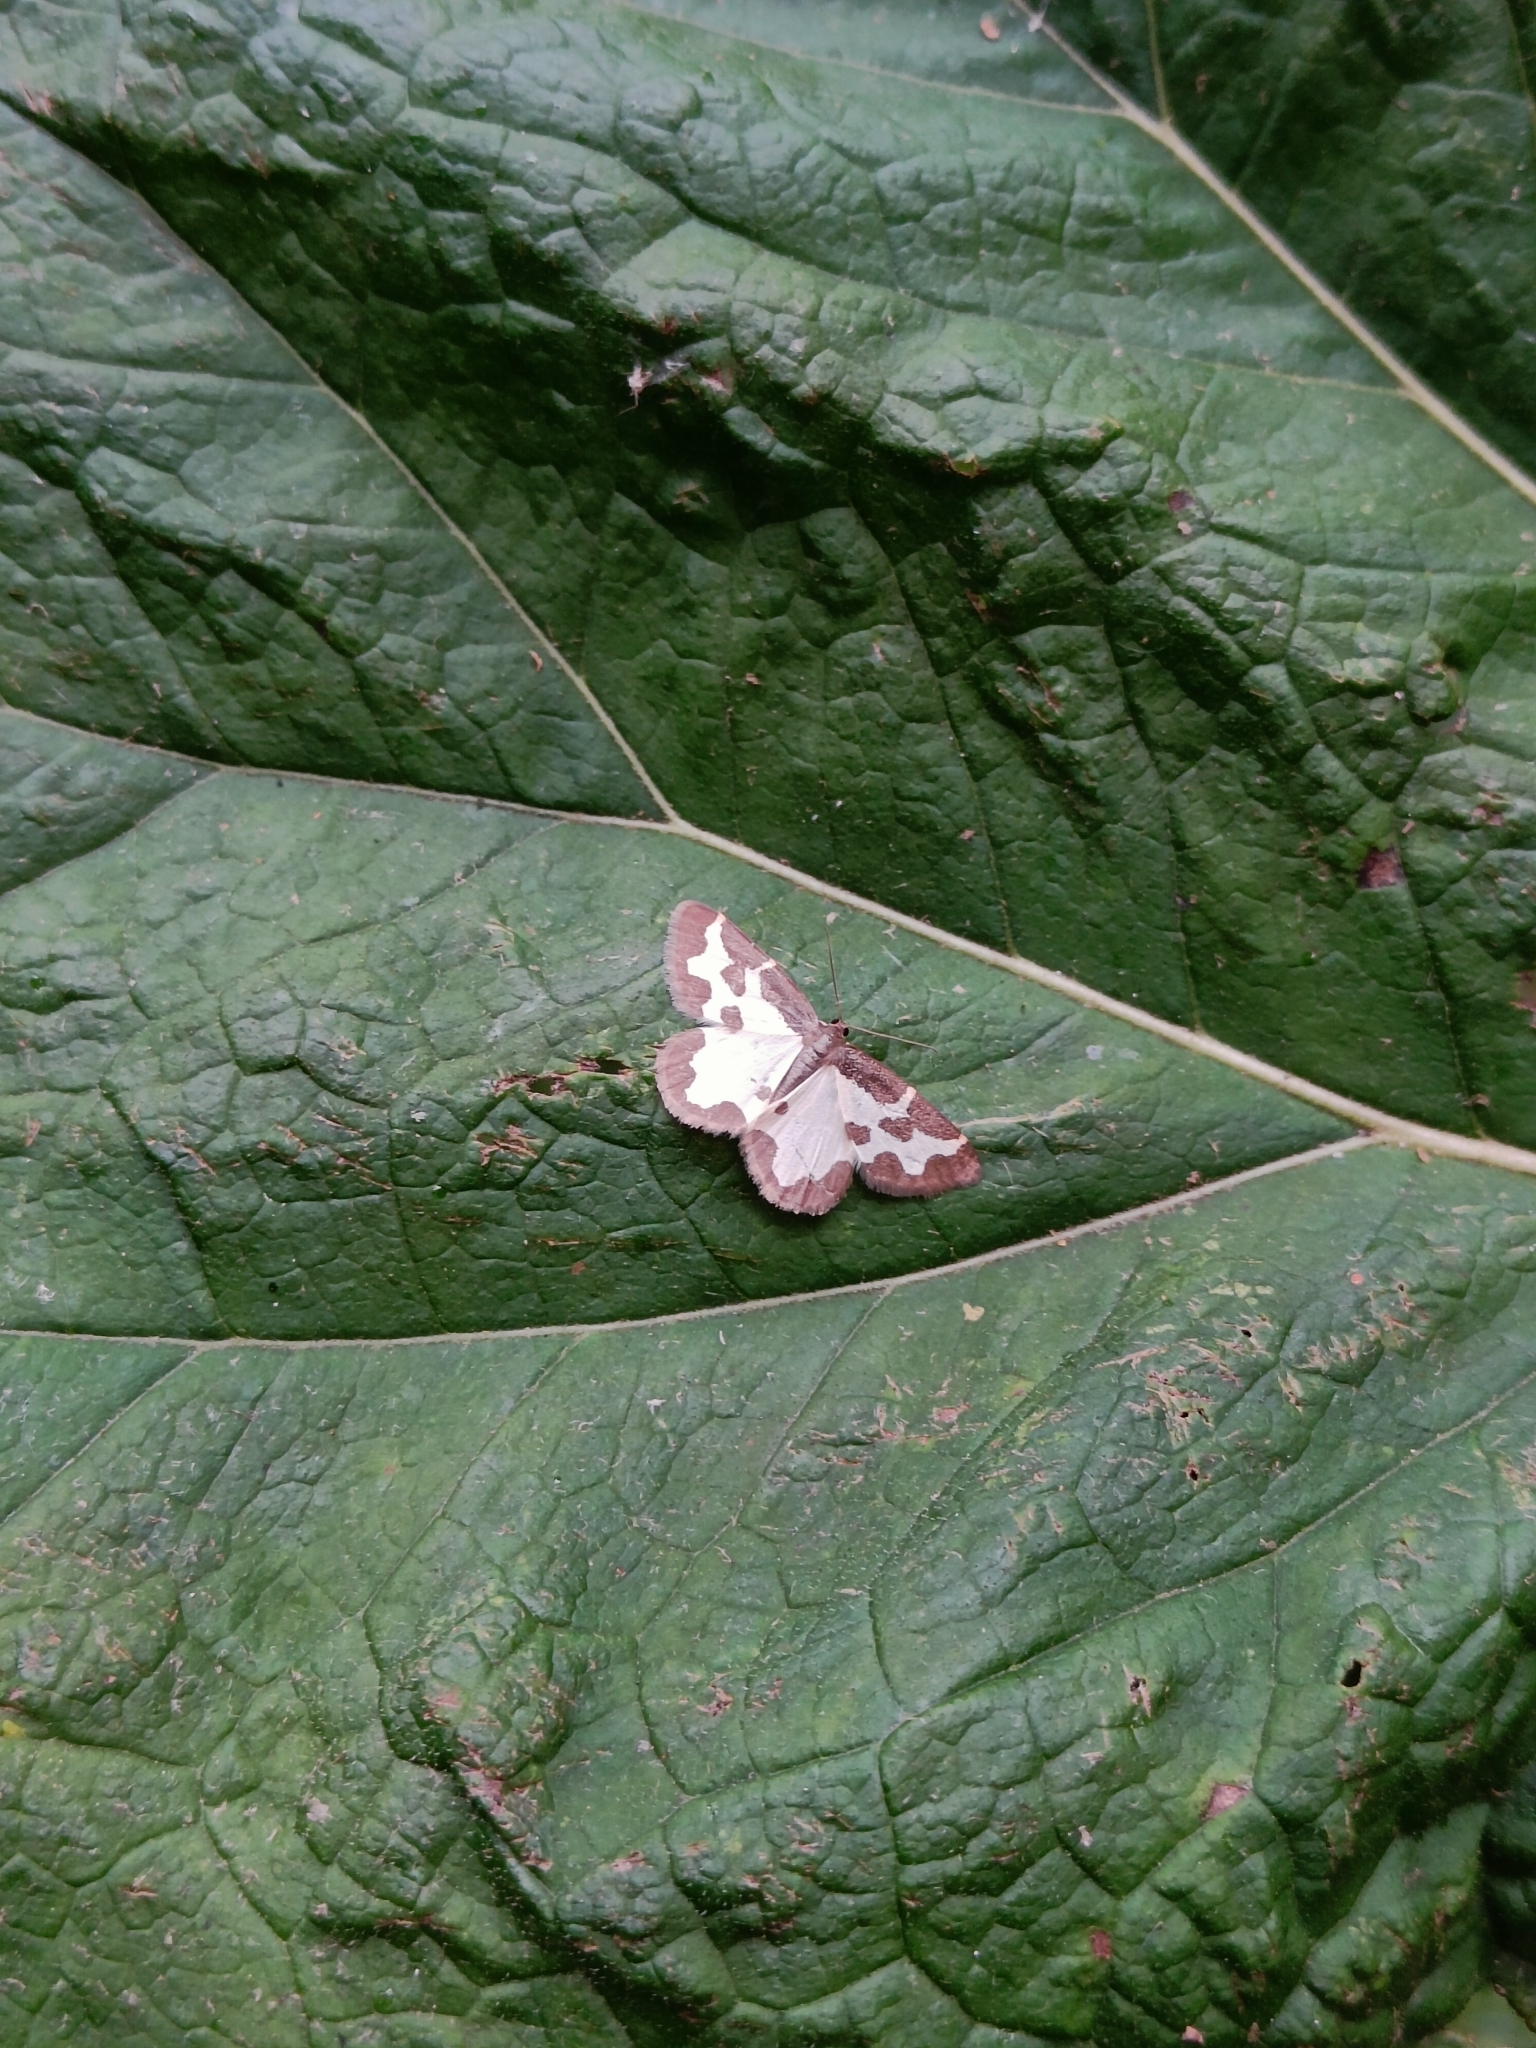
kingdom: Animalia
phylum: Arthropoda
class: Insecta
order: Lepidoptera
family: Geometridae
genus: Lomaspilis
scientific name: Lomaspilis marginata
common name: Clouded border
